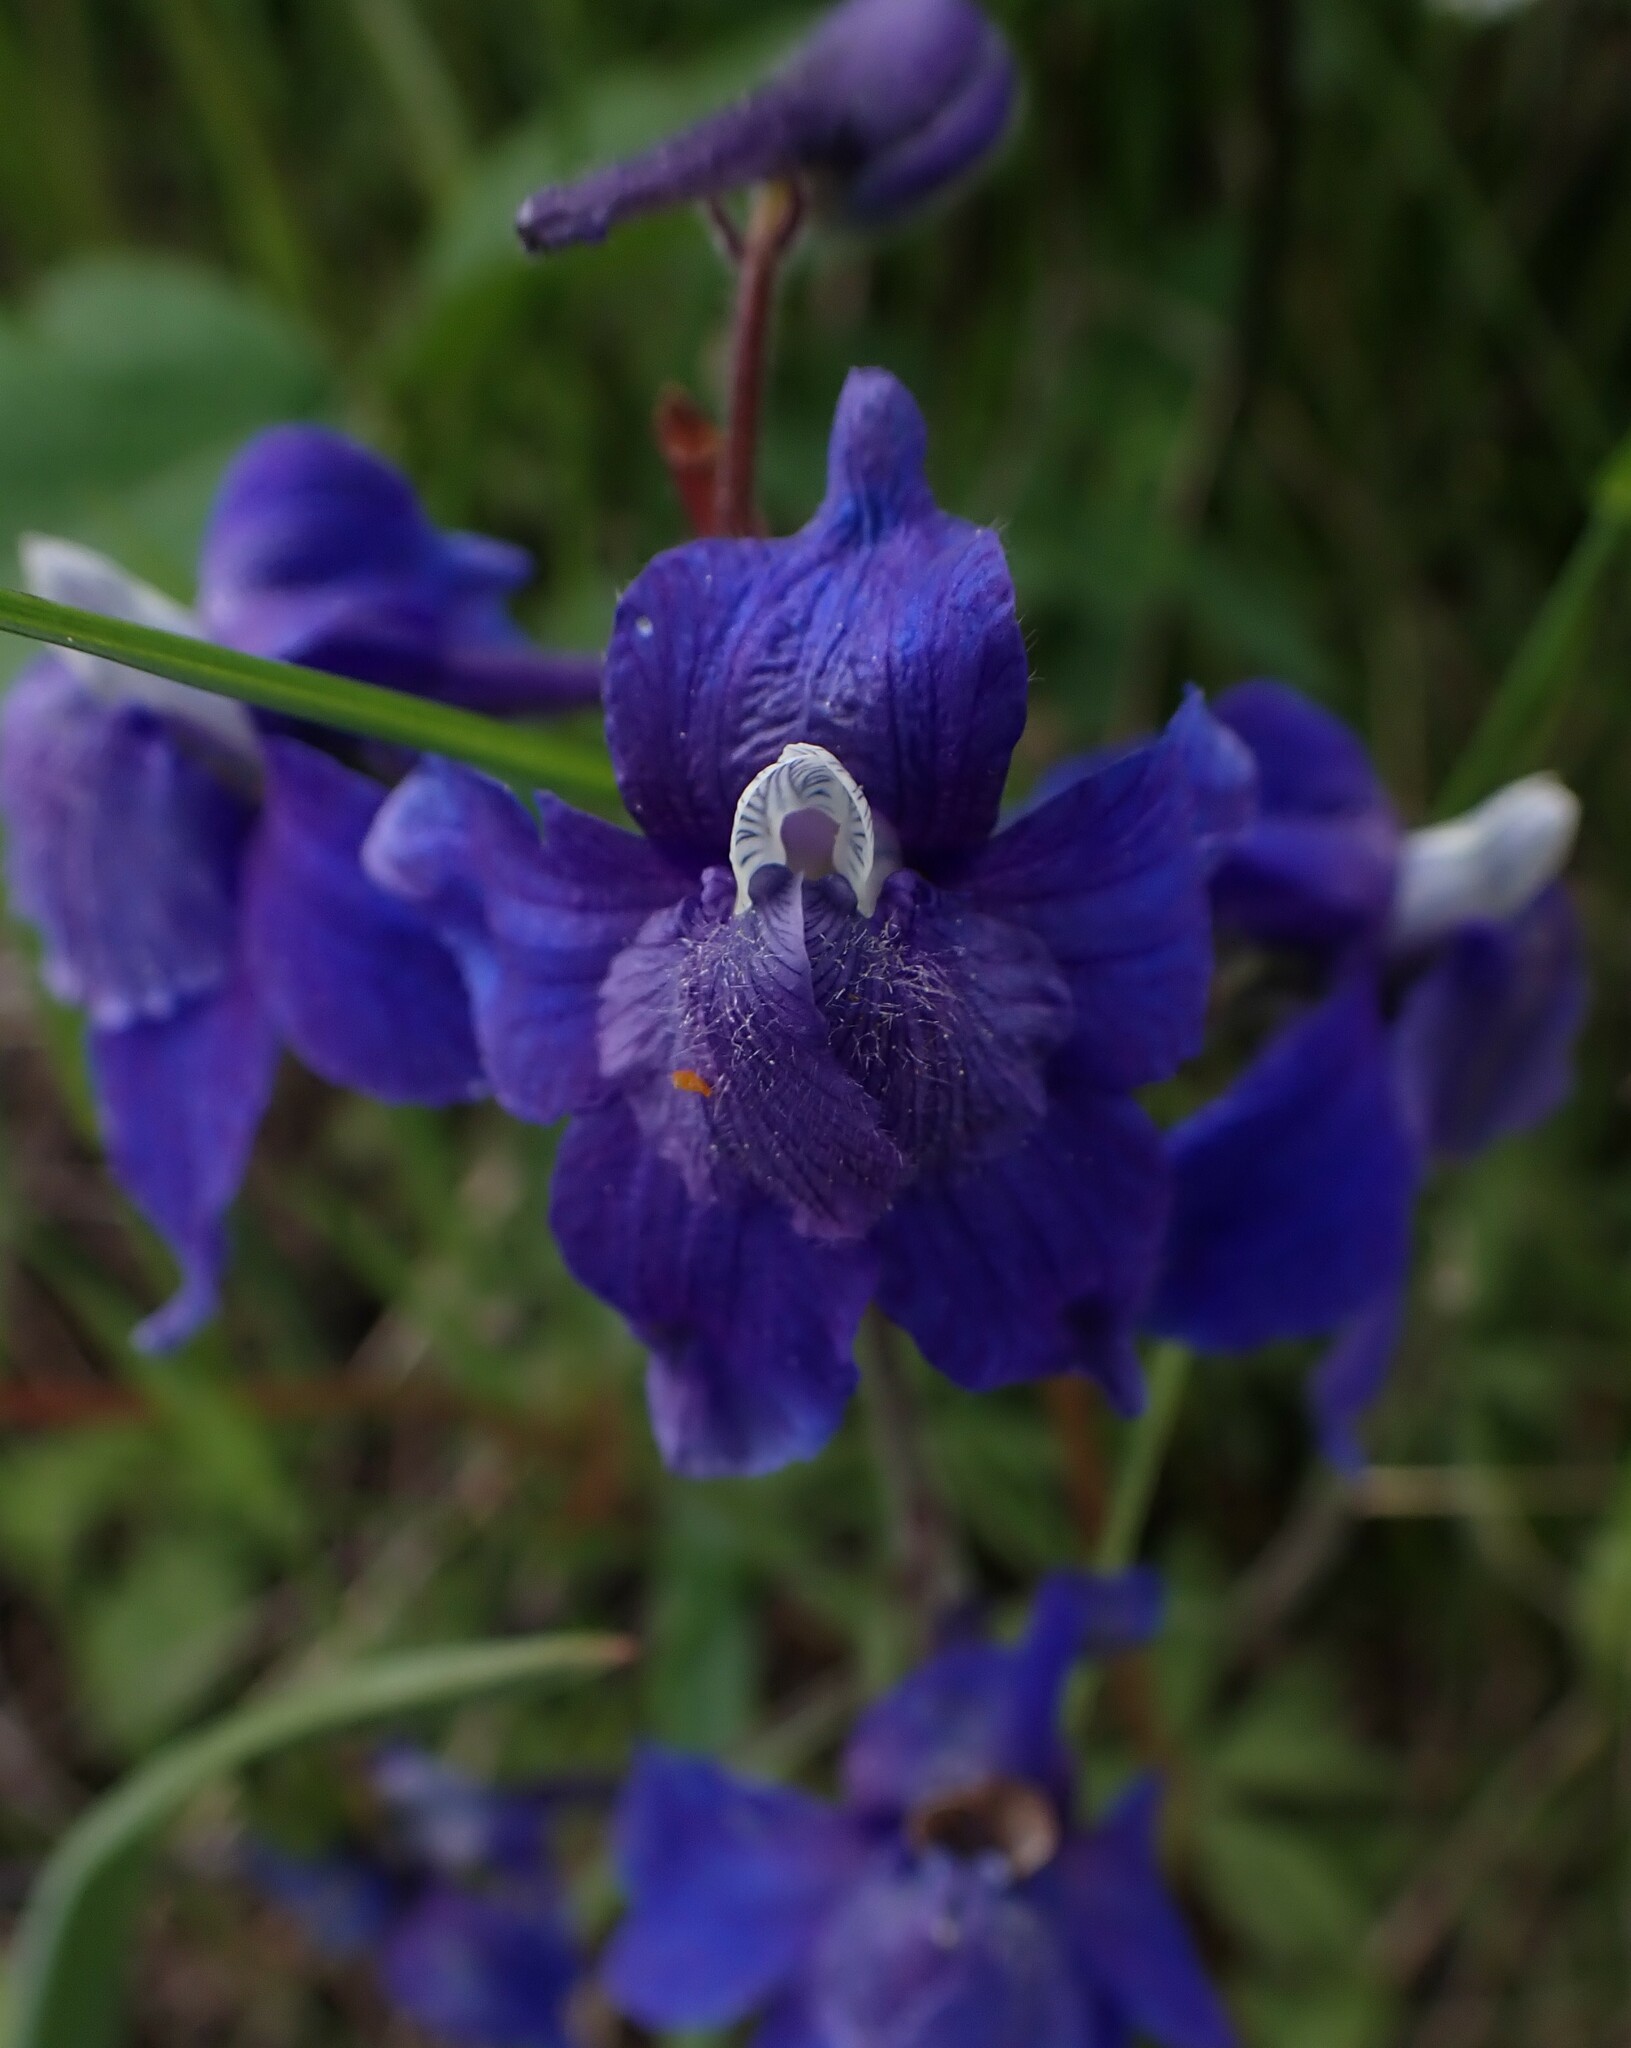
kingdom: Plantae
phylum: Tracheophyta
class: Magnoliopsida
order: Ranunculales
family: Ranunculaceae
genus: Delphinium
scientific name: Delphinium bicolor
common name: Low larkspur
